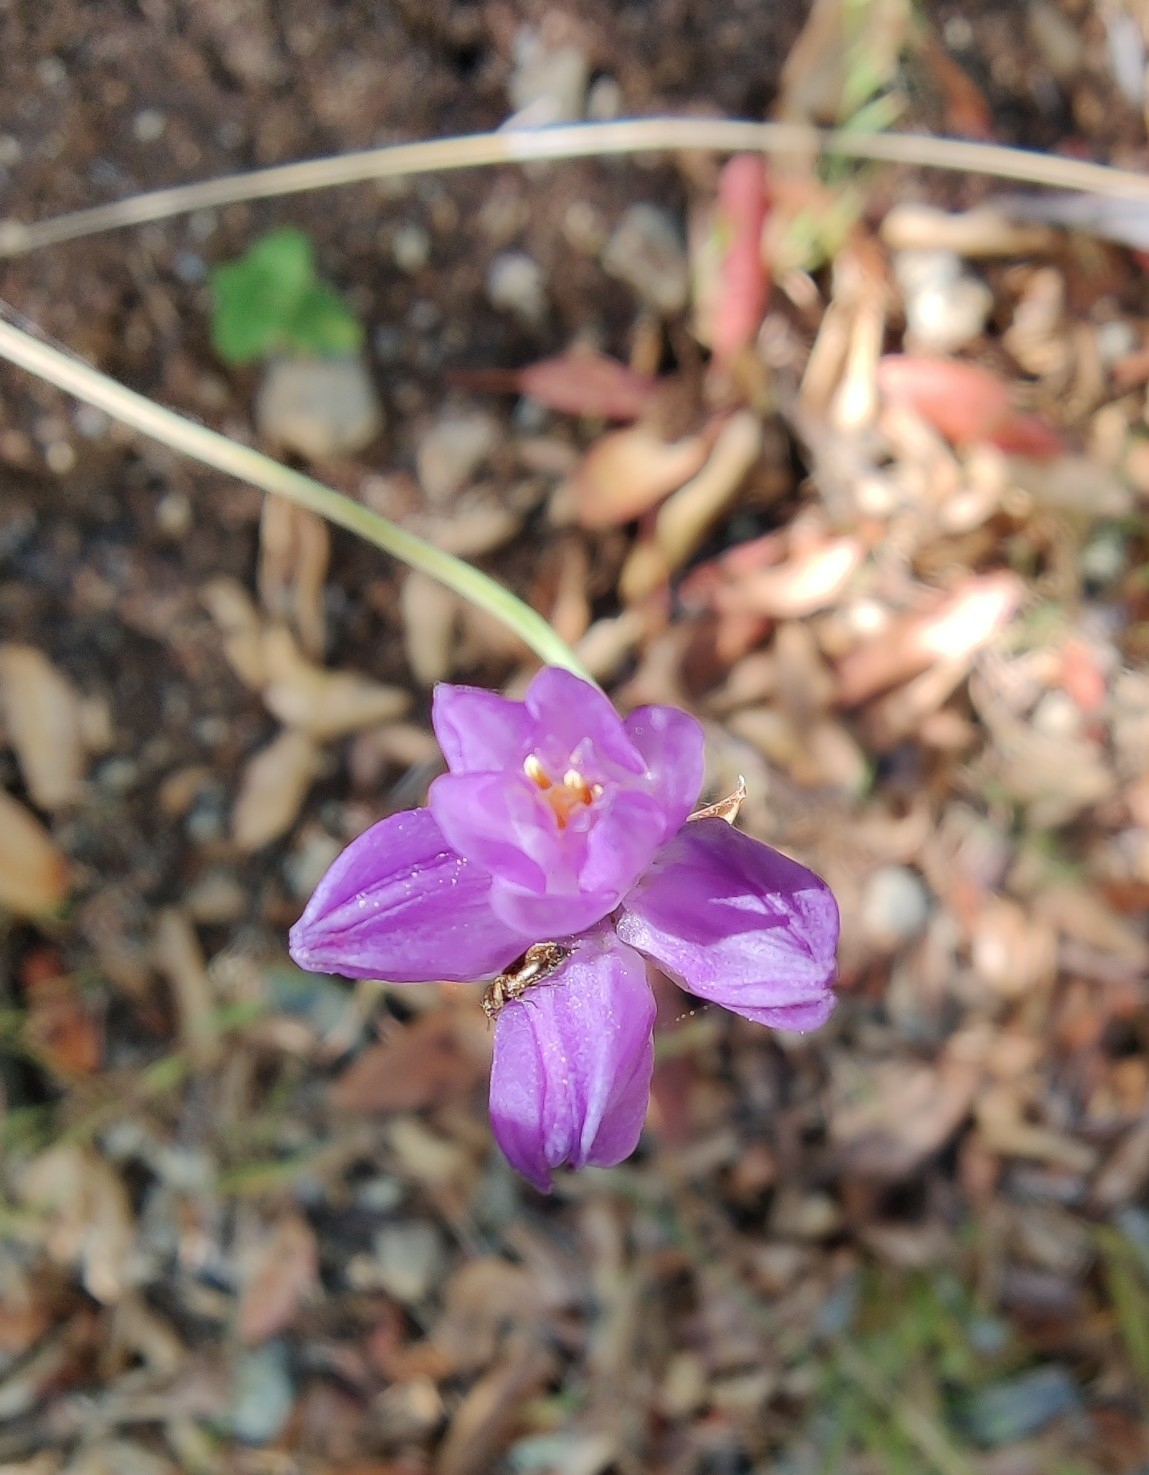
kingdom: Plantae
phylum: Tracheophyta
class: Liliopsida
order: Asparagales
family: Asparagaceae
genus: Dipterostemon
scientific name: Dipterostemon capitatus
